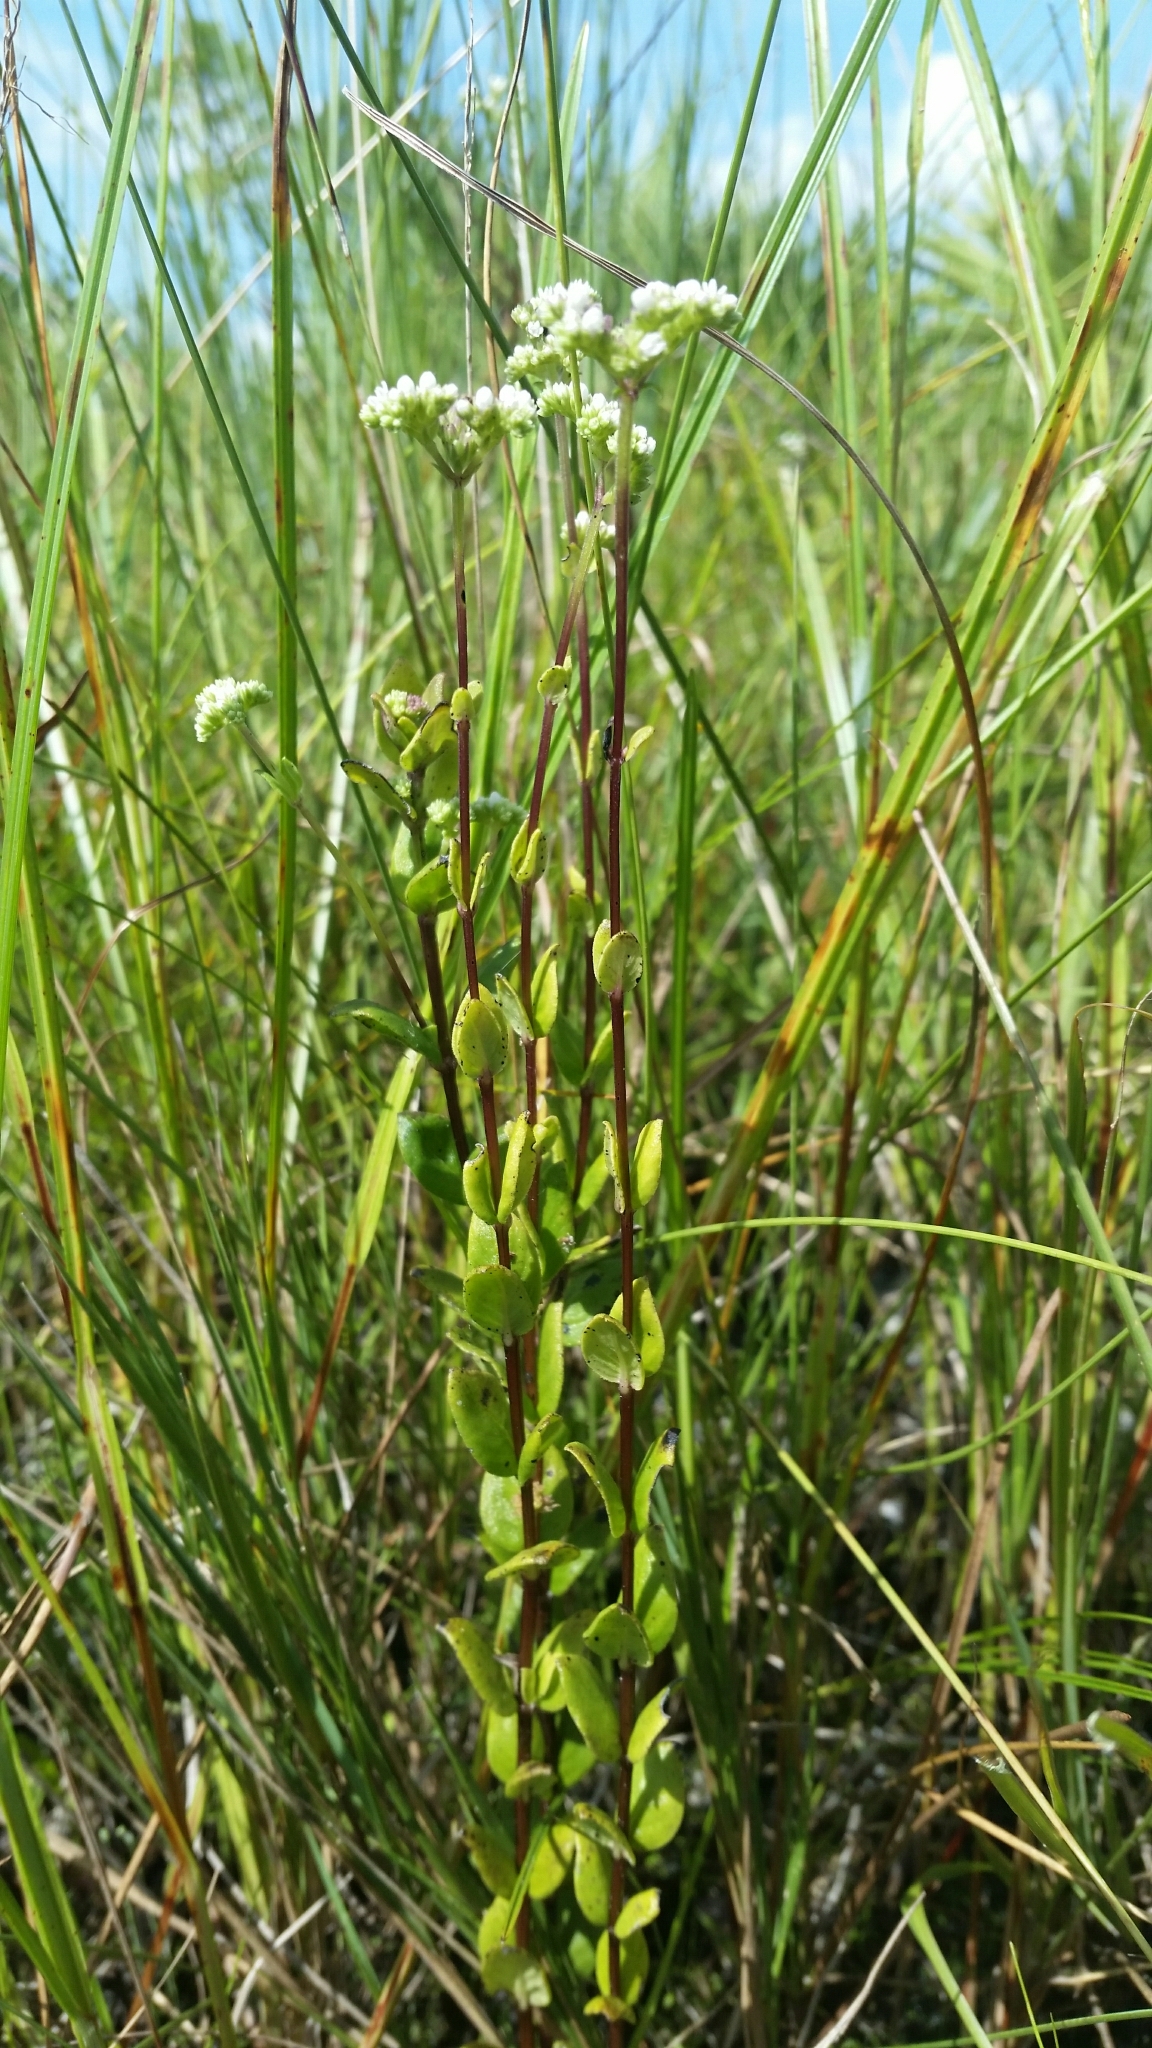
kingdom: Plantae
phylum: Tracheophyta
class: Magnoliopsida
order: Gentianales
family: Loganiaceae
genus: Mitreola
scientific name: Mitreola sessilifolia
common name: Swamp hornpod
